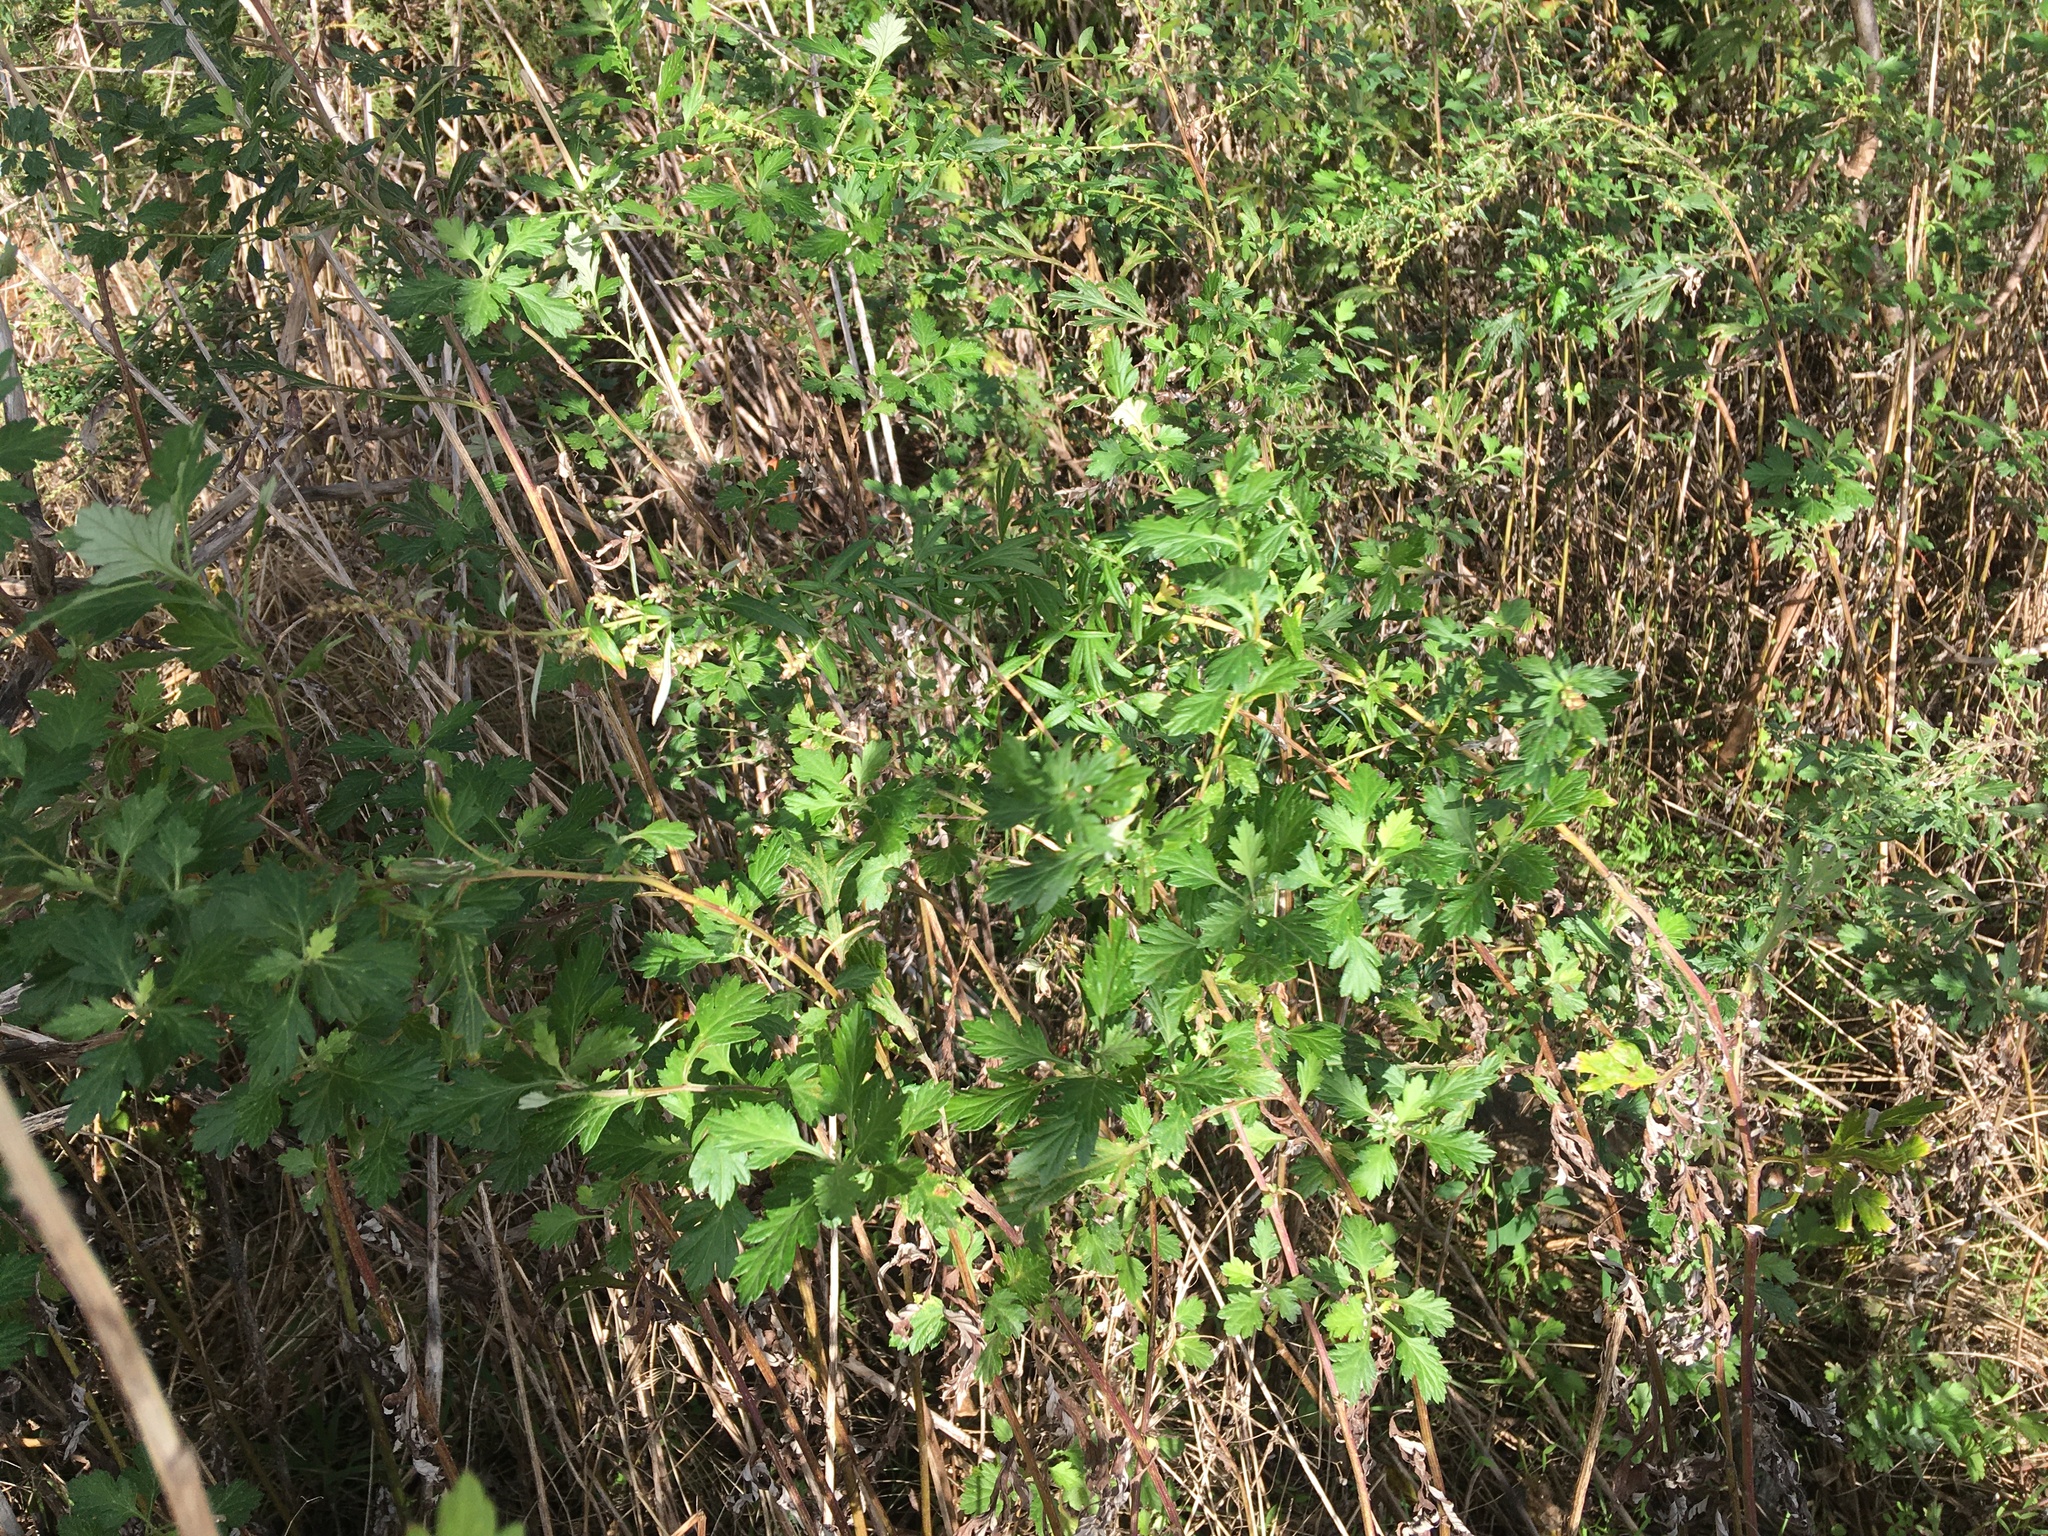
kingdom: Plantae
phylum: Tracheophyta
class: Magnoliopsida
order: Asterales
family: Asteraceae
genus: Artemisia
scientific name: Artemisia vulgaris
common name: Mugwort
